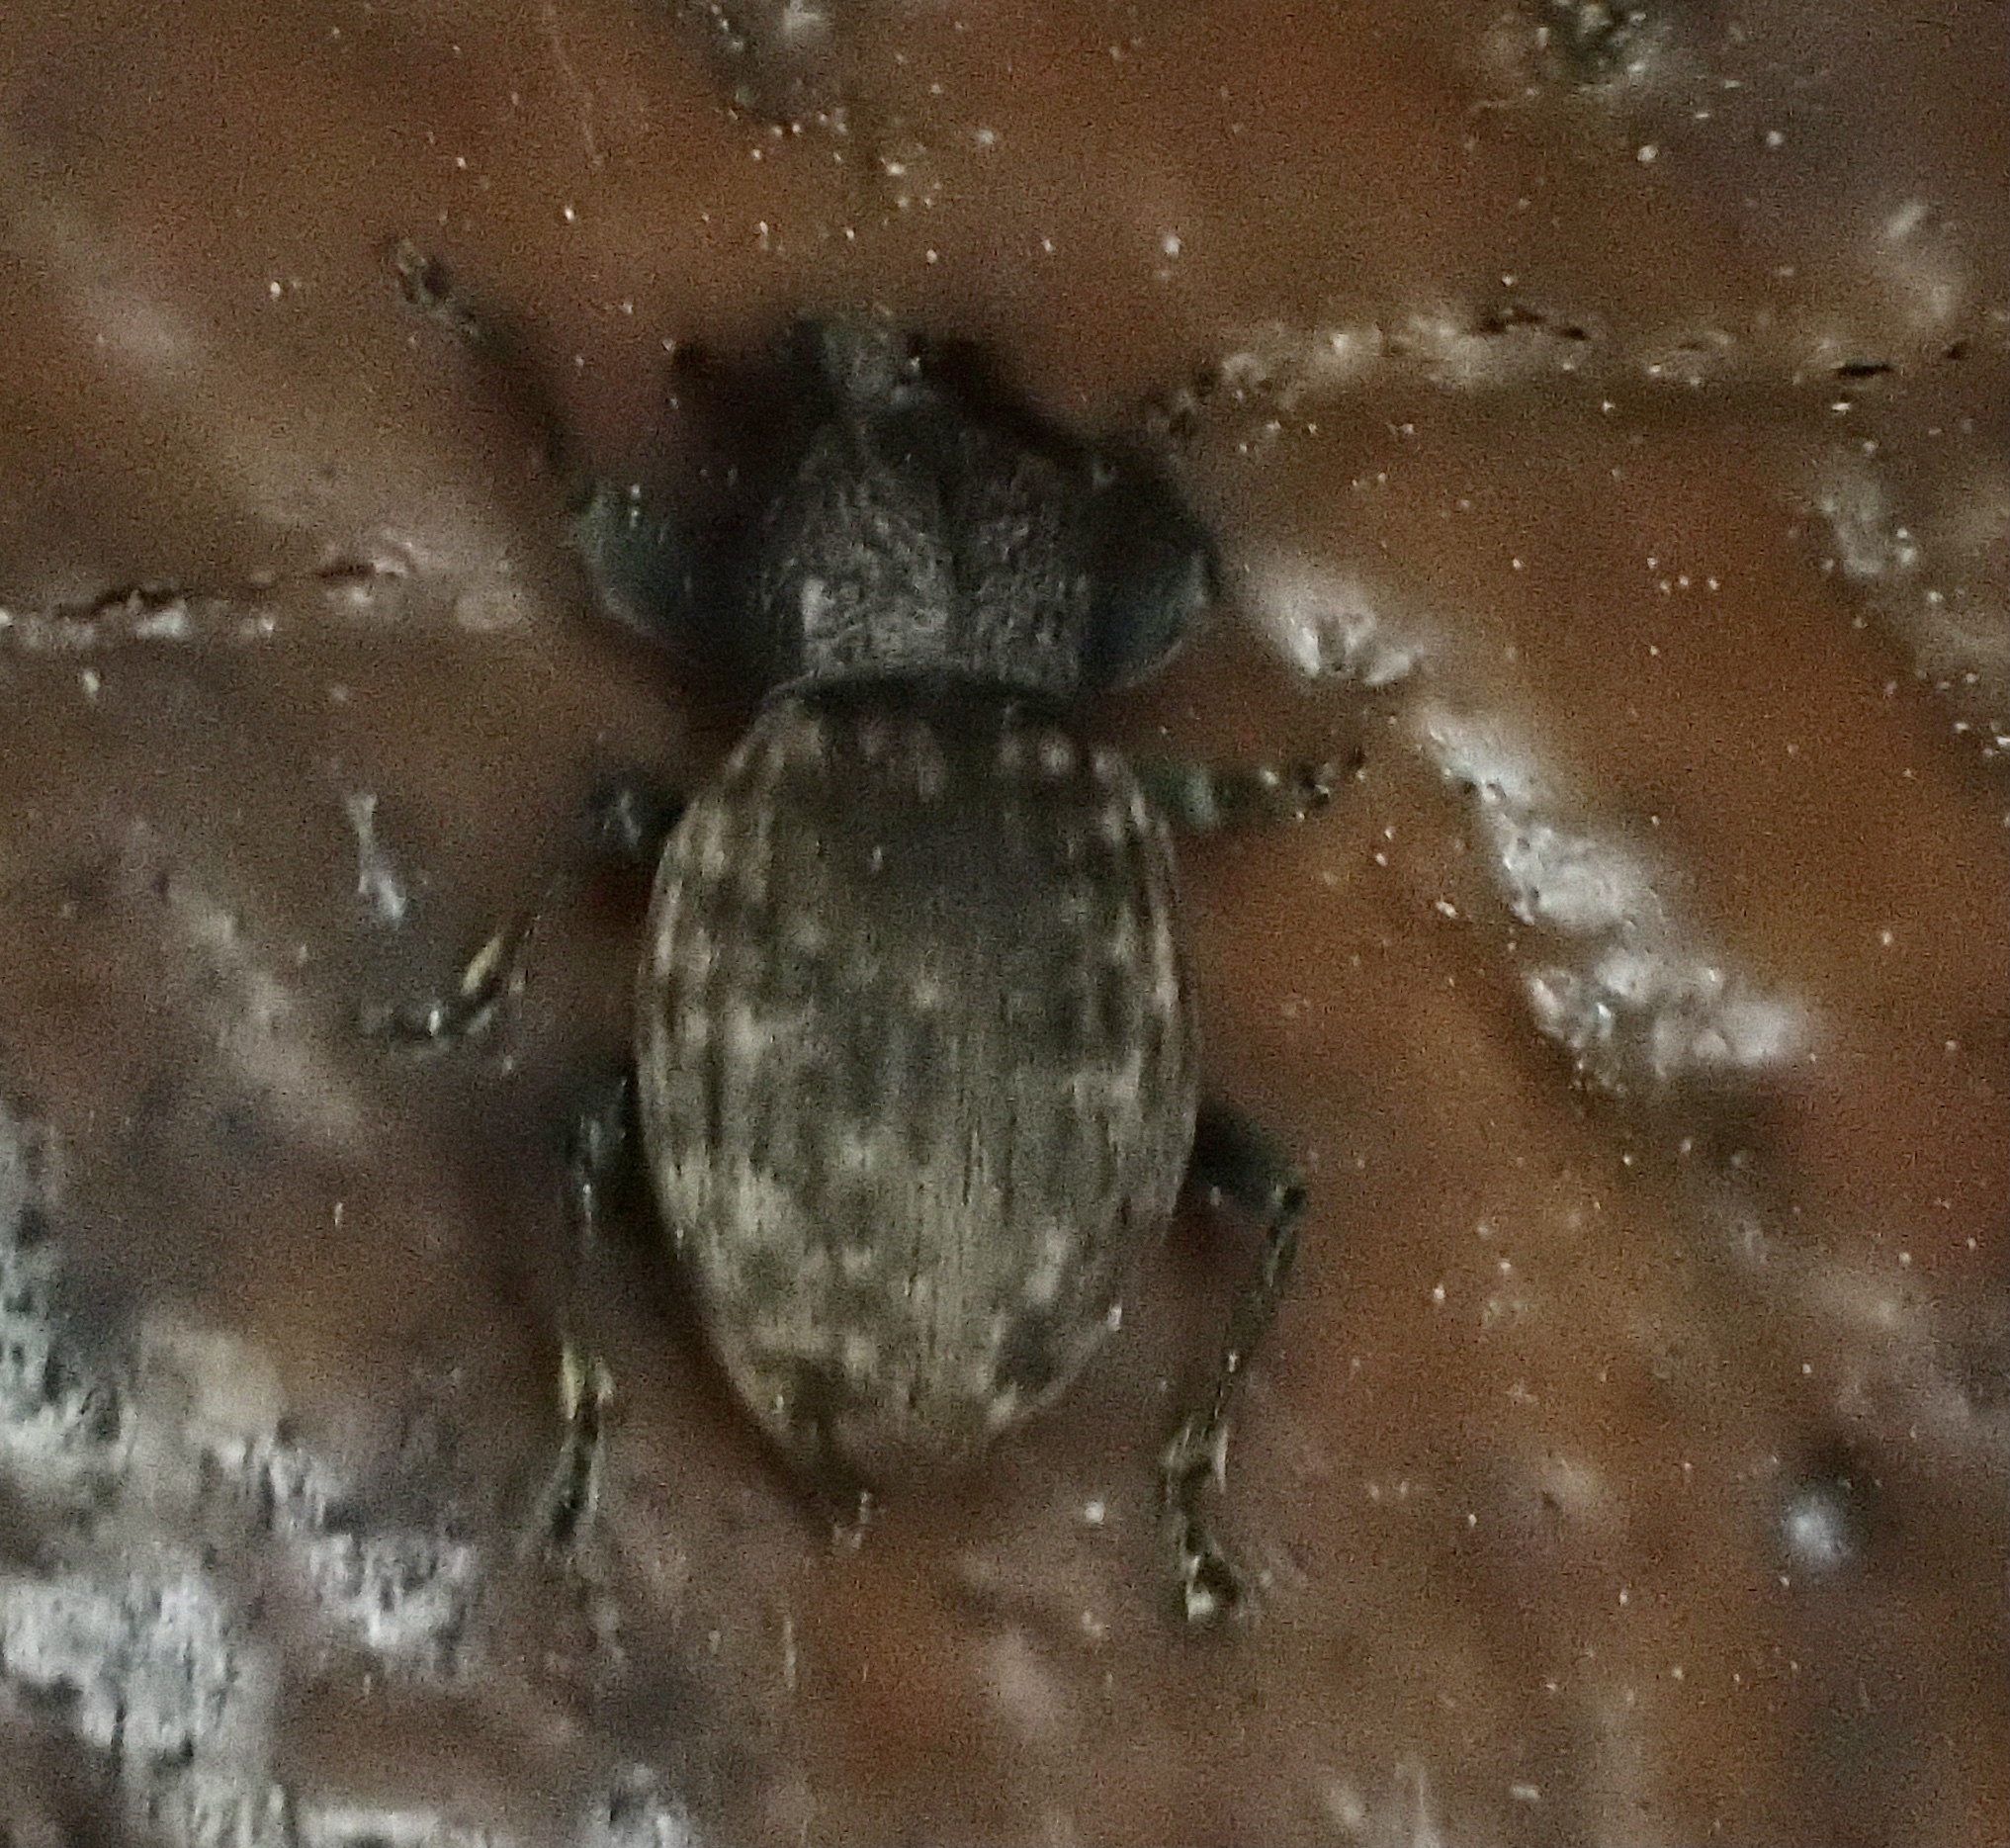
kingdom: Animalia
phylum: Arthropoda
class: Insecta
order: Coleoptera
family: Curculionidae
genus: Otiorhynchus
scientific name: Otiorhynchus raucus
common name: Weevil
